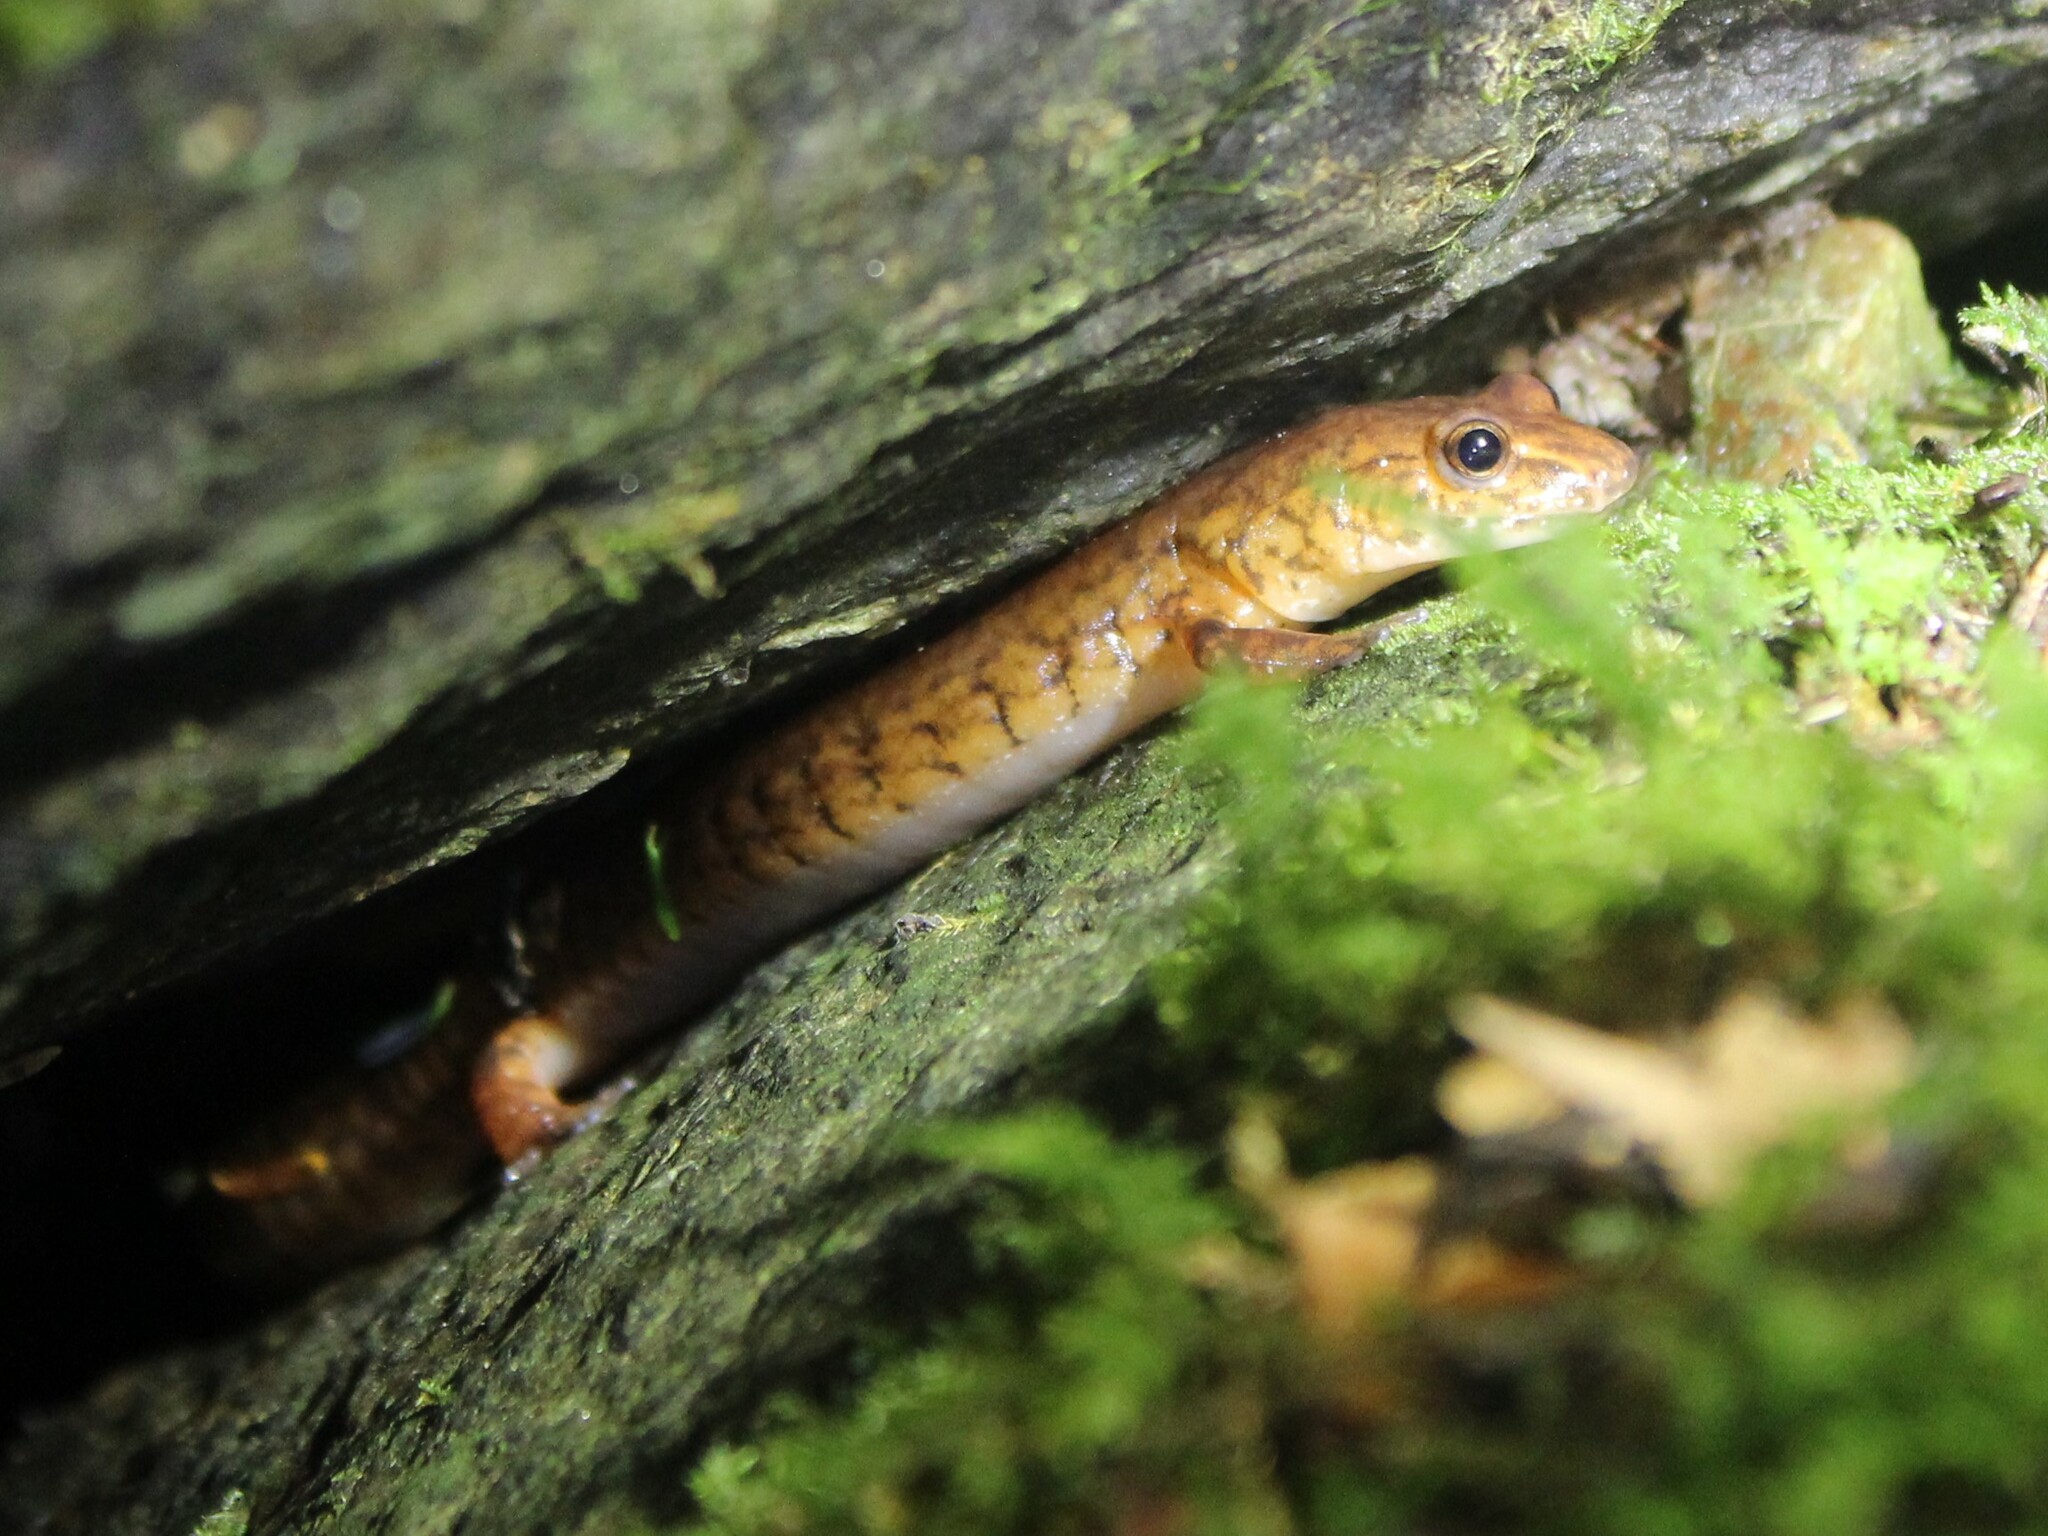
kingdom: Animalia
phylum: Chordata
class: Amphibia
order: Caudata
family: Plethodontidae
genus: Gyrinophilus
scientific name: Gyrinophilus porphyriticus
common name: Spring salamander
